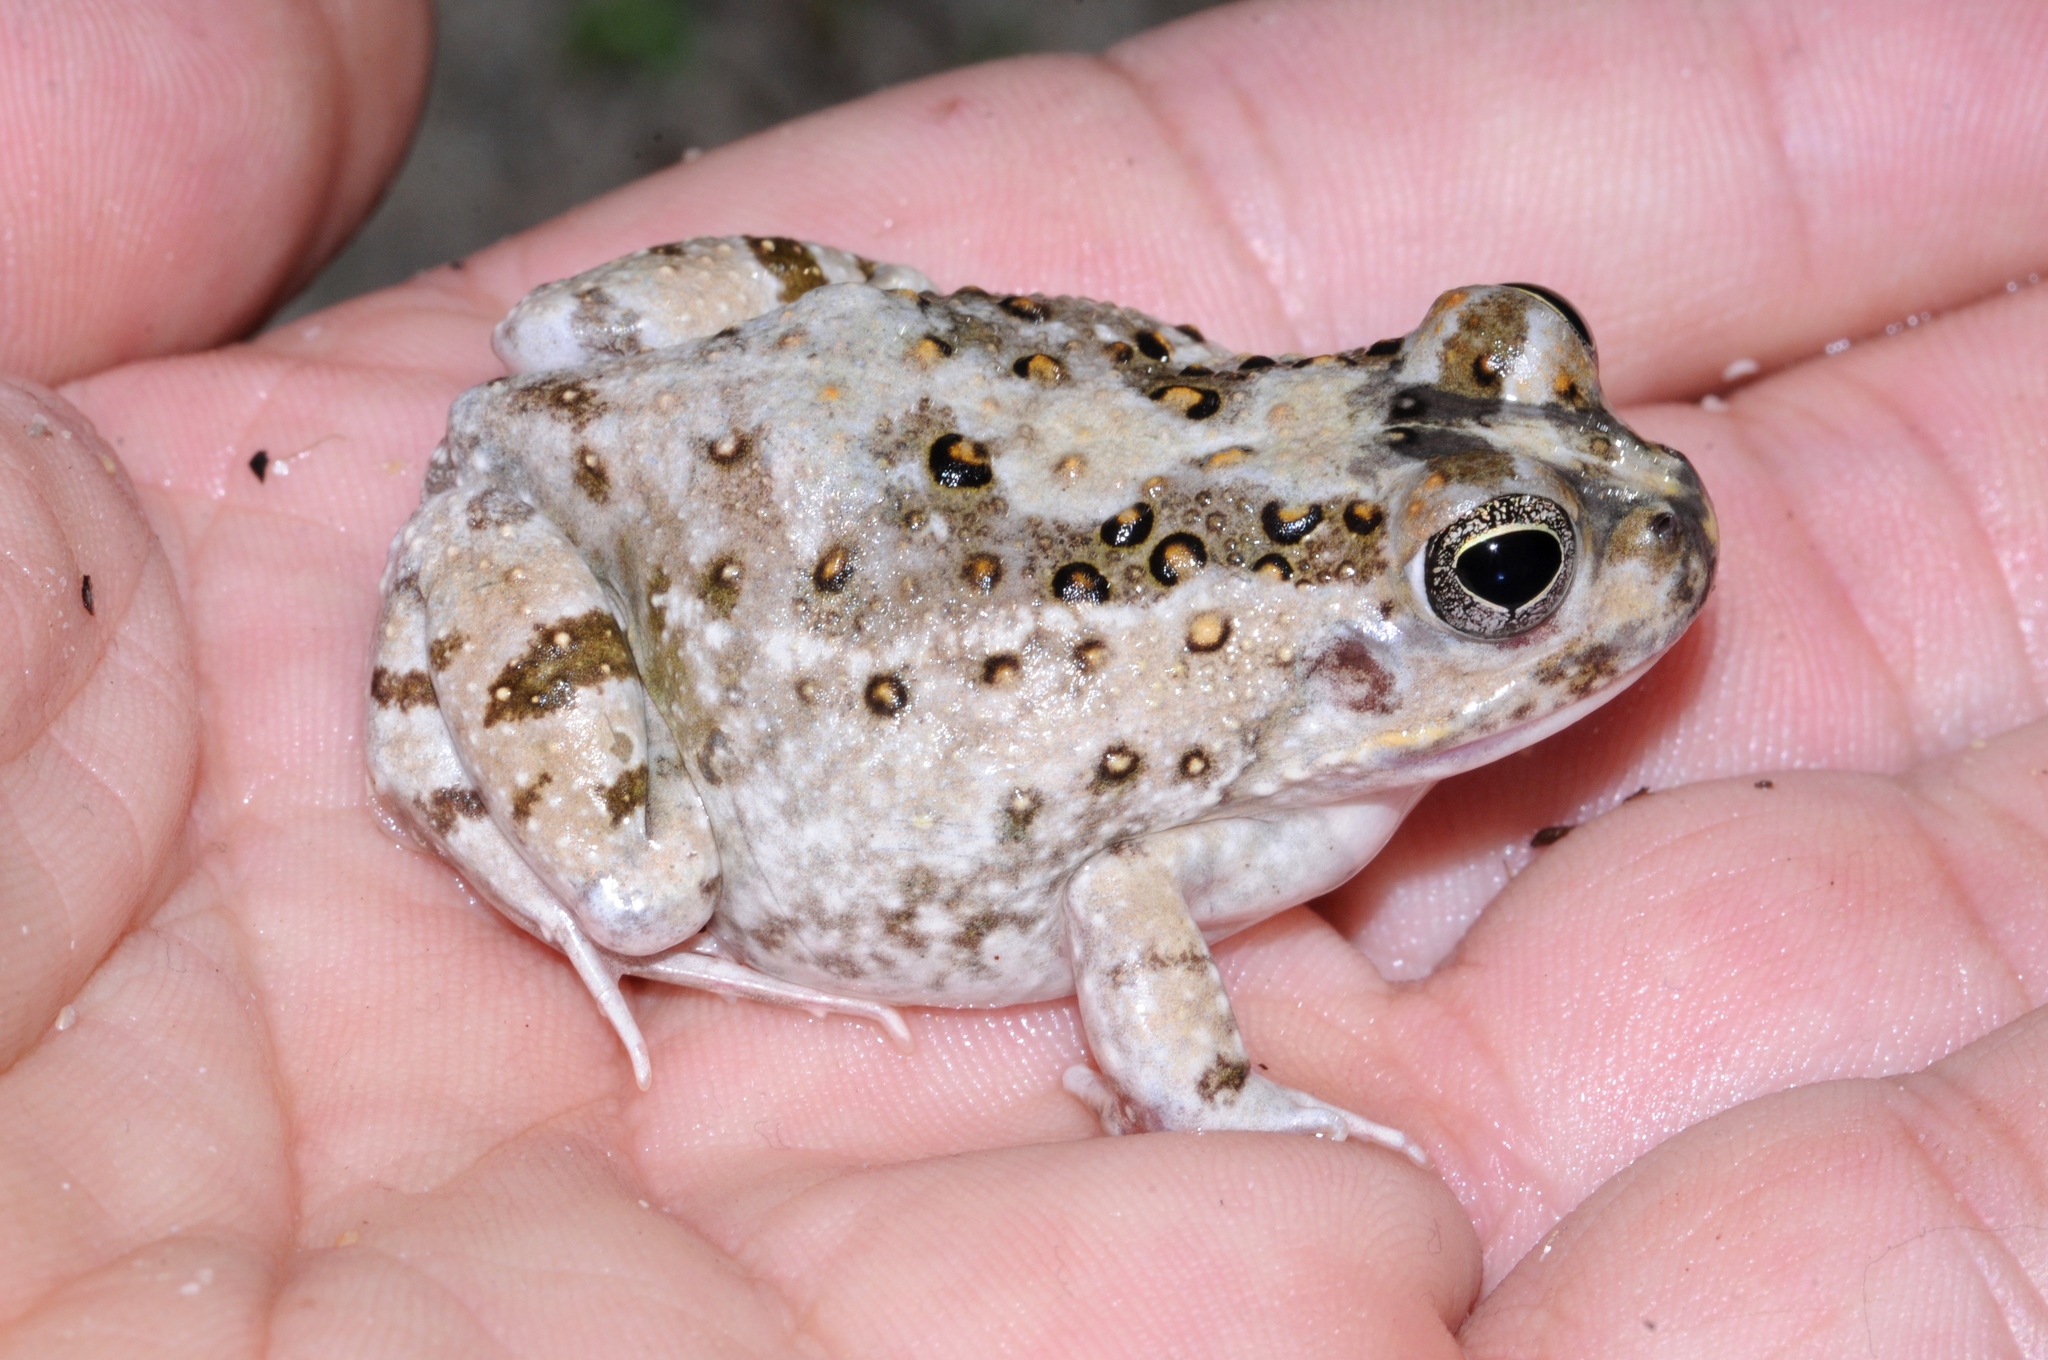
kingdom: Animalia
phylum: Chordata
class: Amphibia
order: Anura
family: Pyxicephalidae
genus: Tomopterna
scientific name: Tomopterna delalandii
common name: Delalande's burrowing bullfrog
